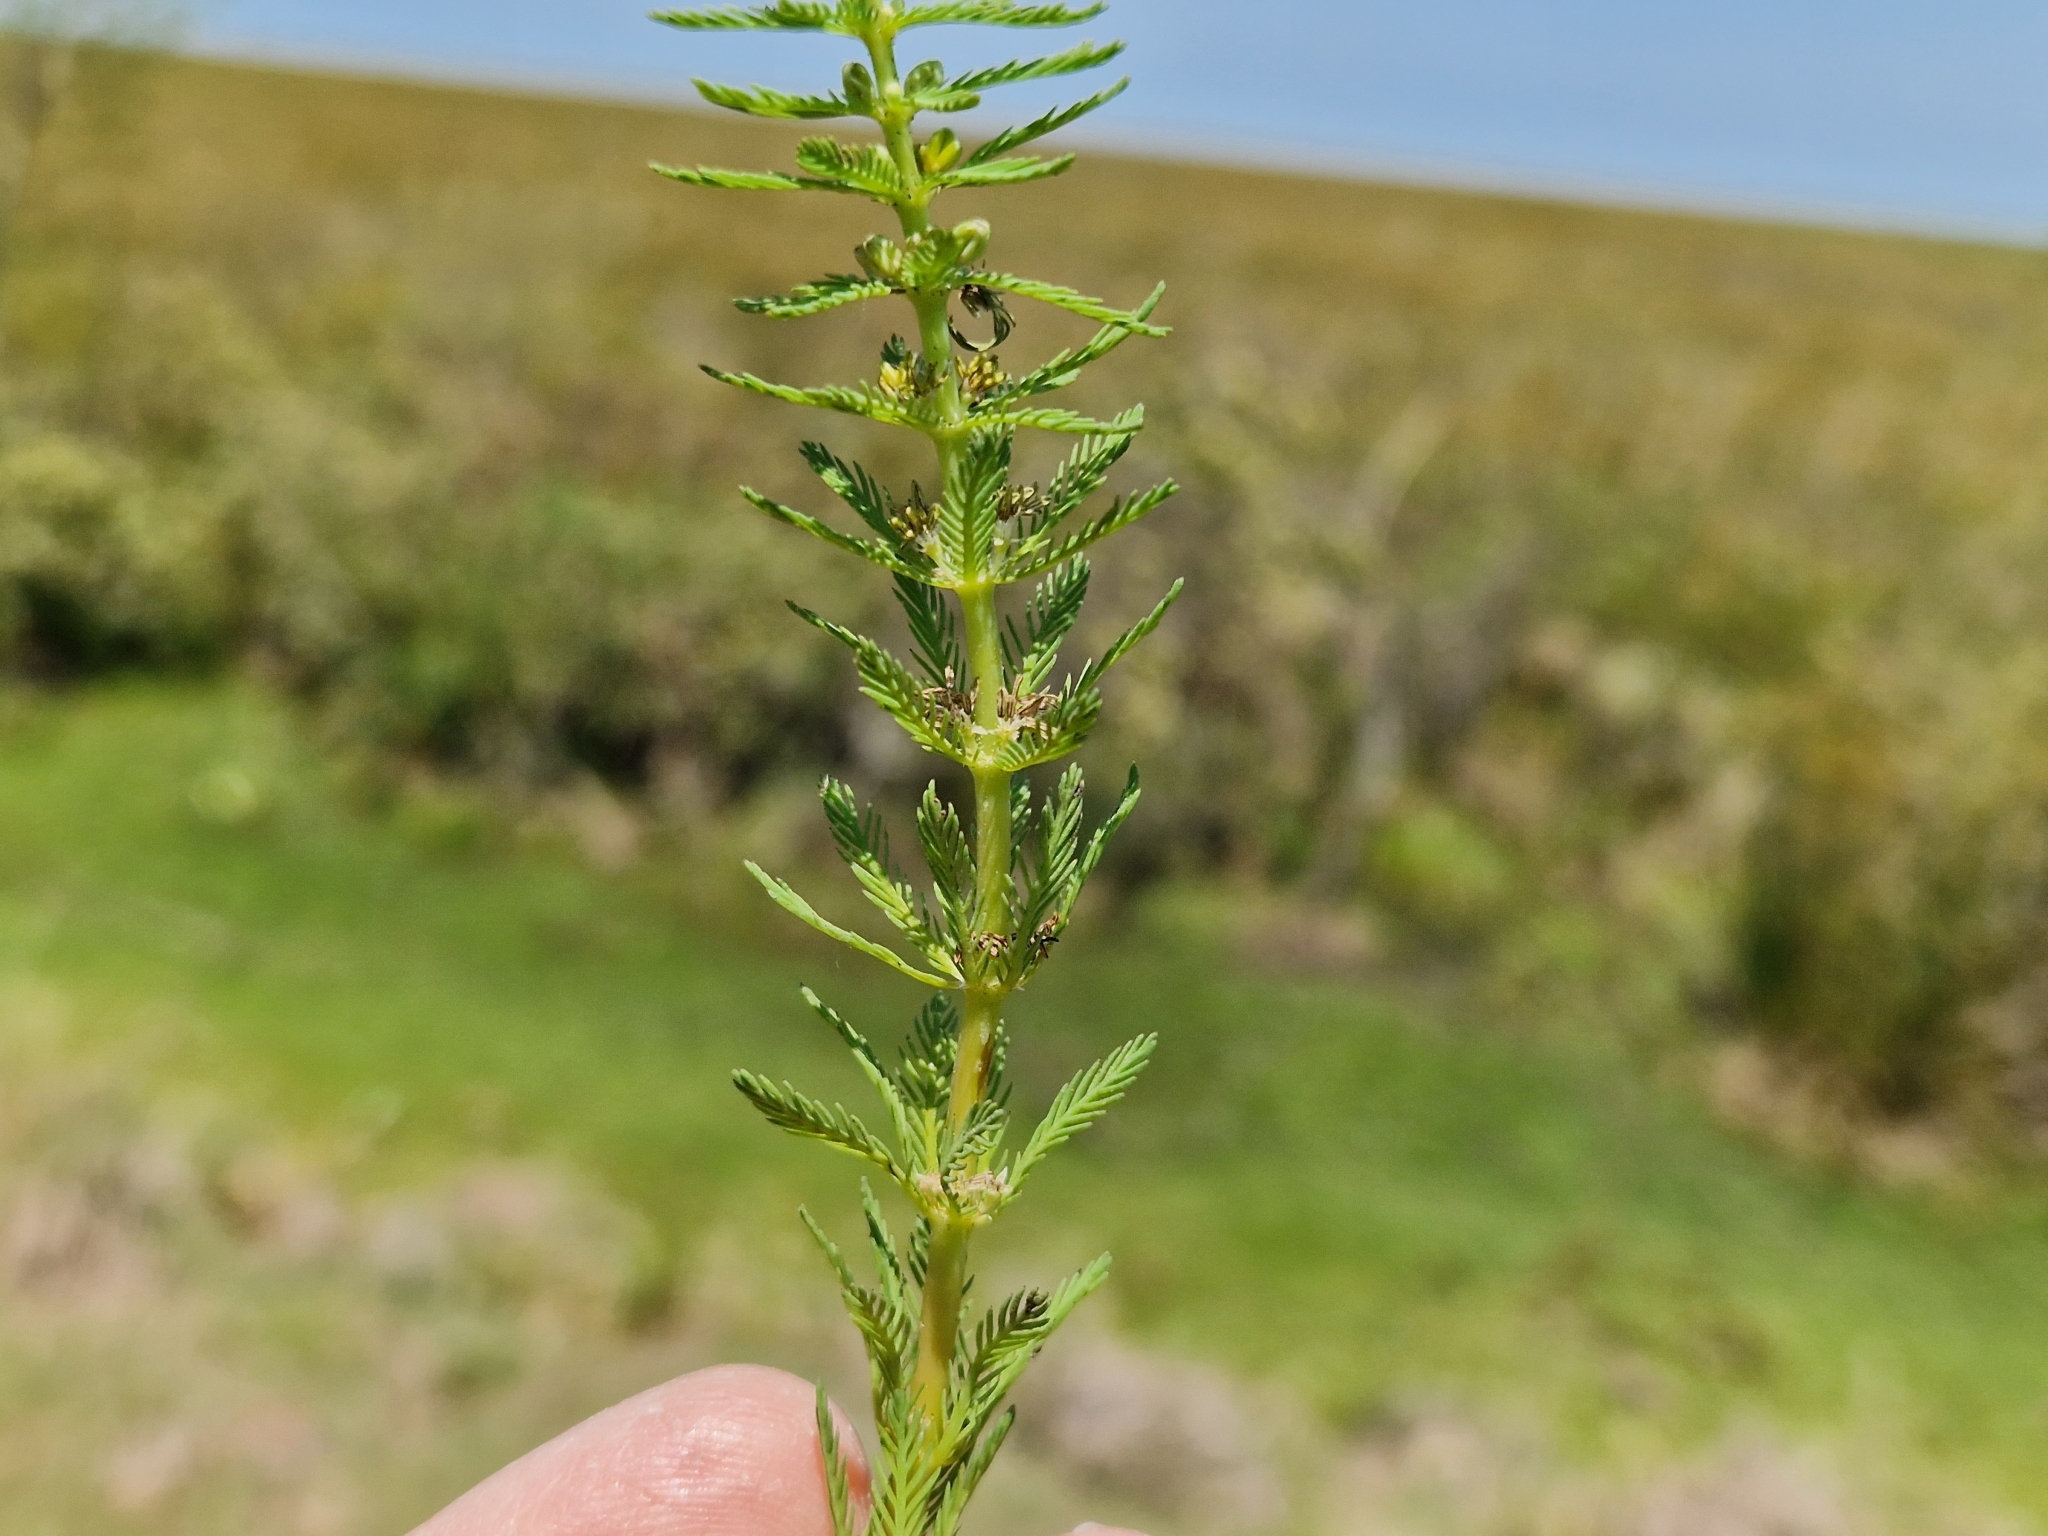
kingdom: Plantae
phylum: Tracheophyta
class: Magnoliopsida
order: Saxifragales
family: Haloragaceae
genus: Myriophyllum
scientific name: Myriophyllum aquaticum
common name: Parrot's feather
